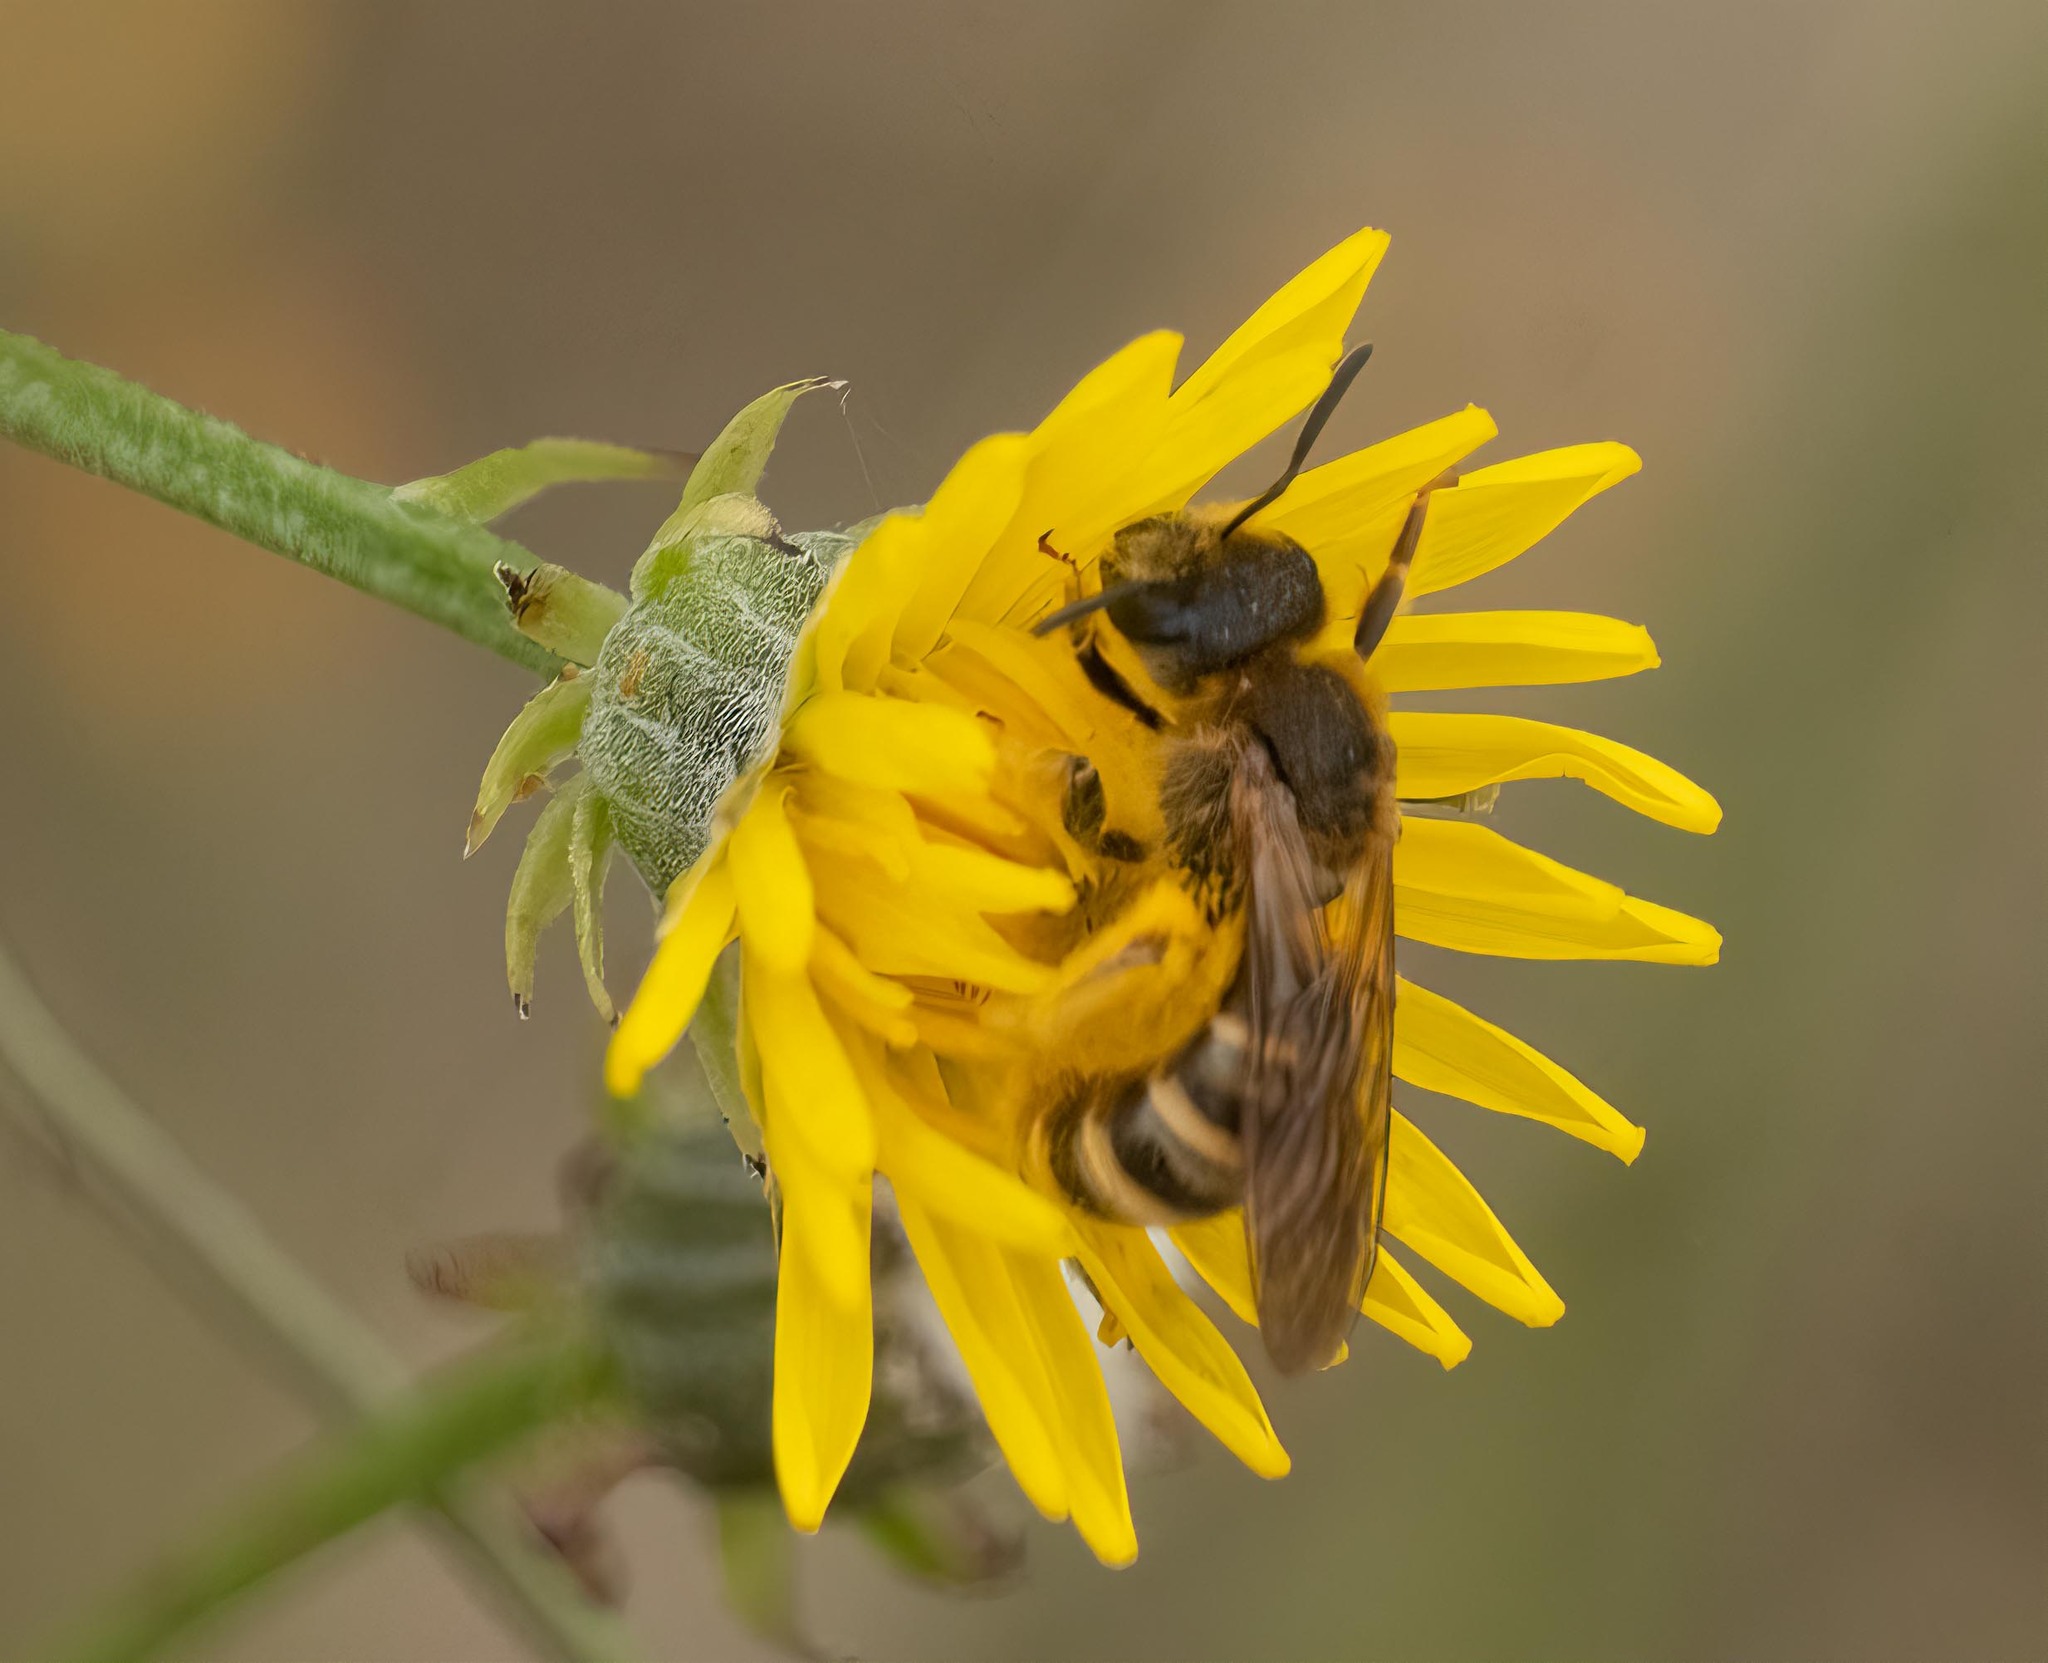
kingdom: Animalia
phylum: Arthropoda
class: Insecta
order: Hymenoptera
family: Halictidae
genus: Halictus
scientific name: Halictus scabiosae
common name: Great banded furrow bee
